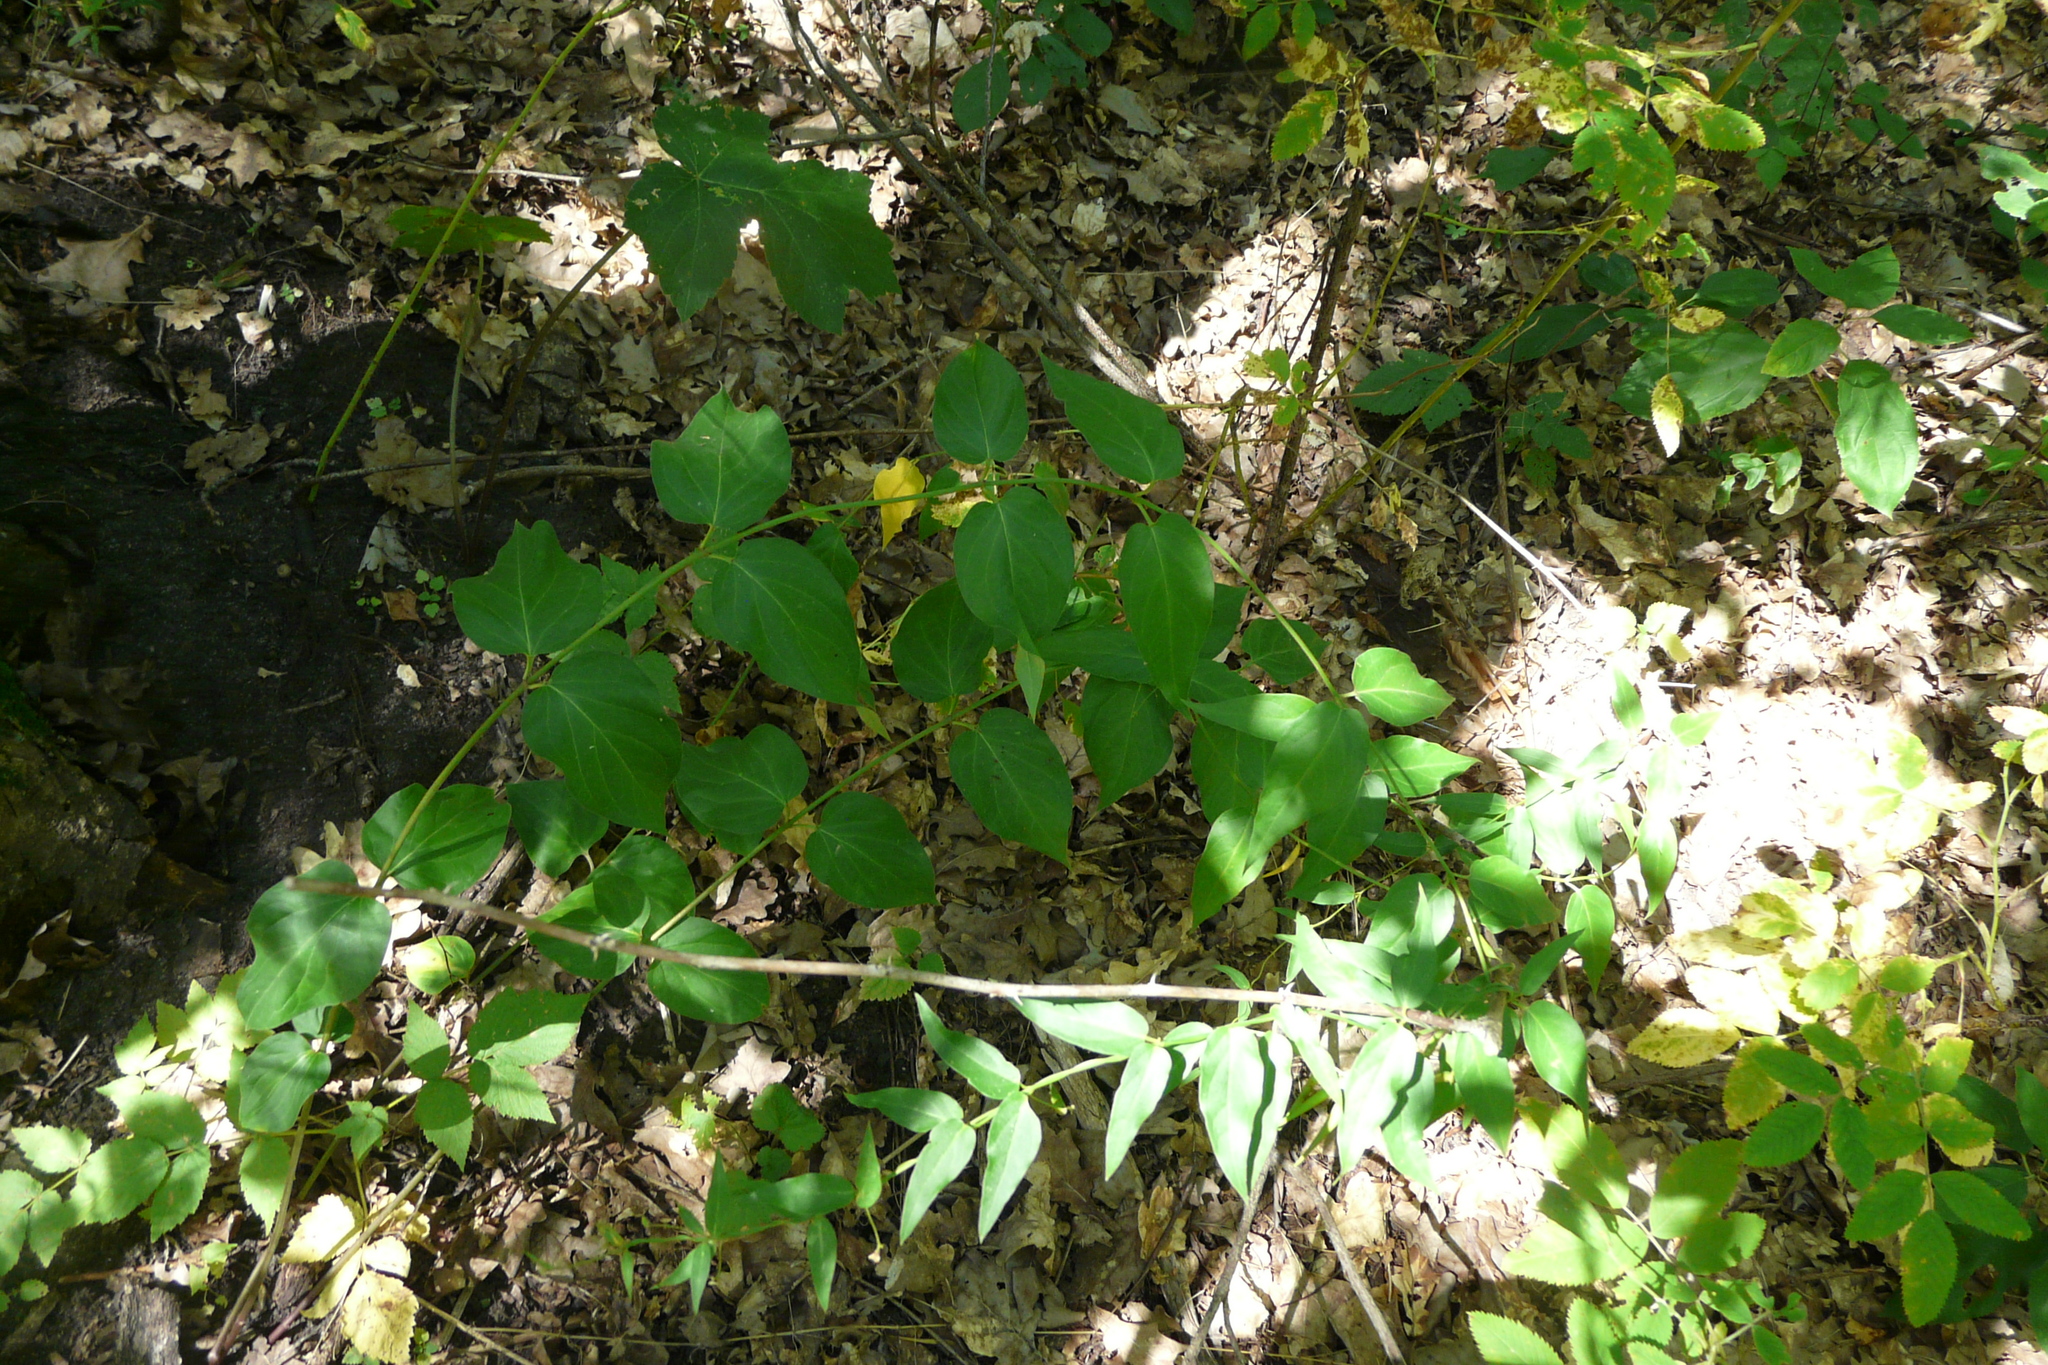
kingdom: Plantae
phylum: Tracheophyta
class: Magnoliopsida
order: Gentianales
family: Apocynaceae
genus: Vincetoxicum
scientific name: Vincetoxicum hirundinaria
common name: White swallowwort
